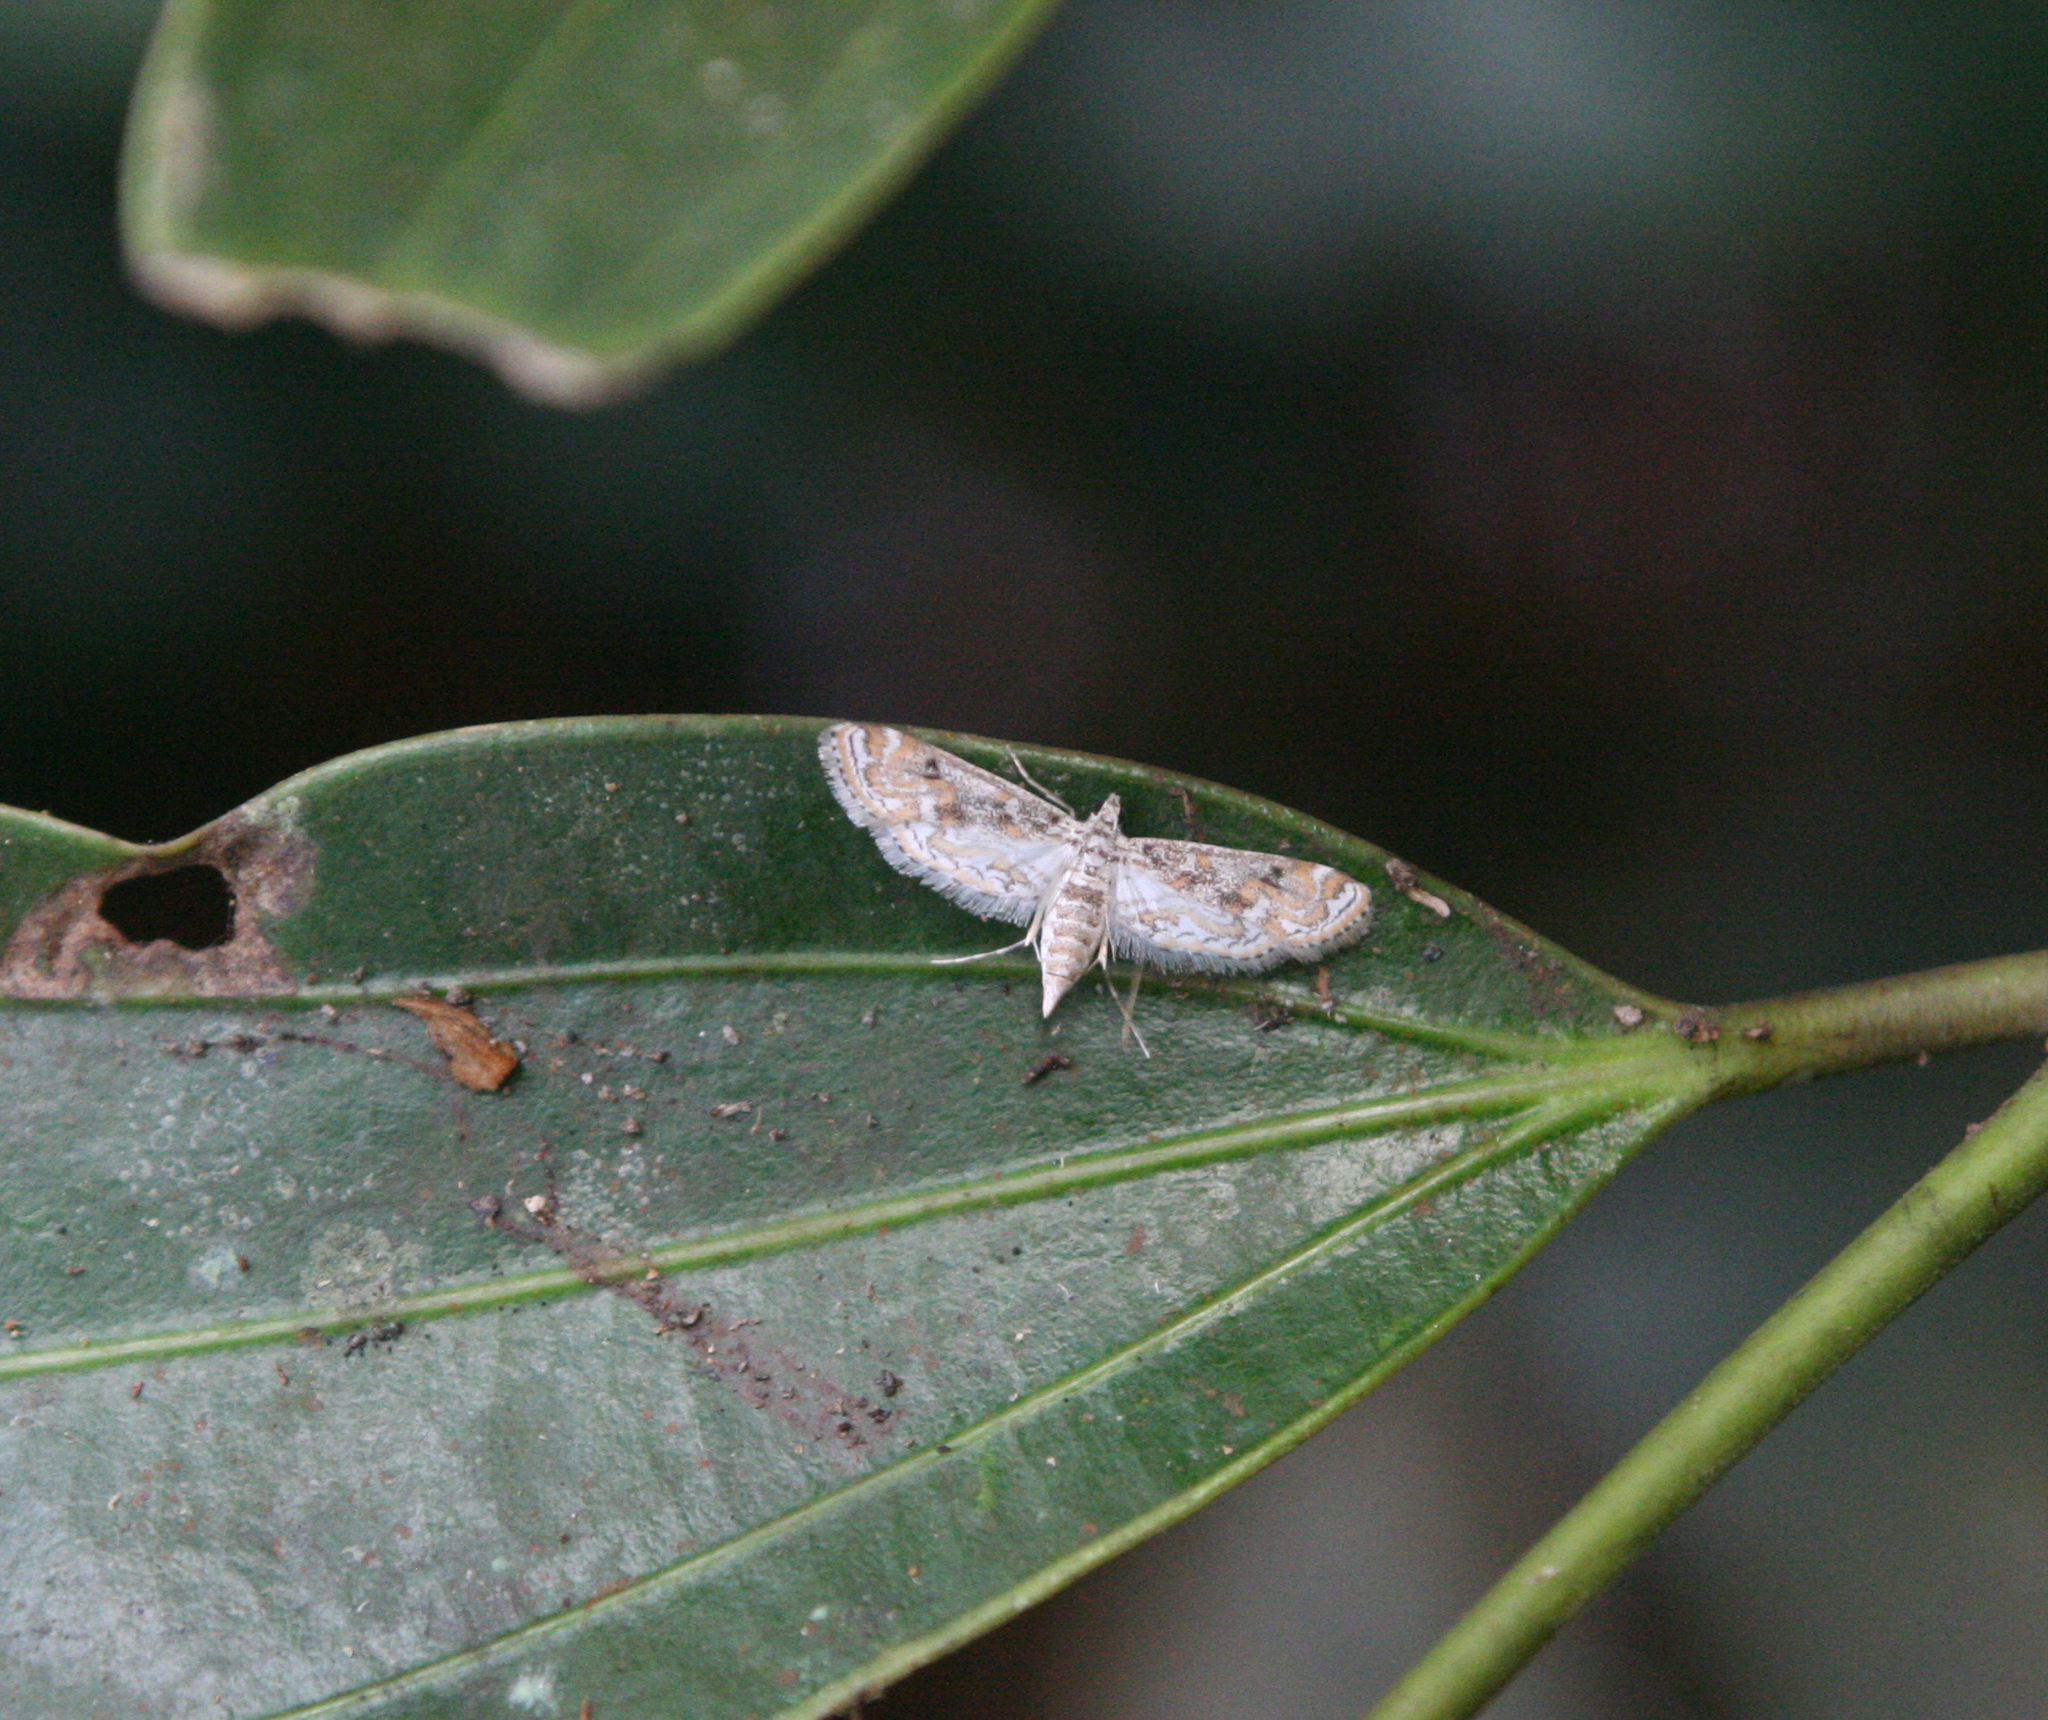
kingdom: Animalia
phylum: Arthropoda
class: Insecta
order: Lepidoptera
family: Crambidae
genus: Parapoynx
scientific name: Parapoynx diminutalis
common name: Hydrilla leafcutter
